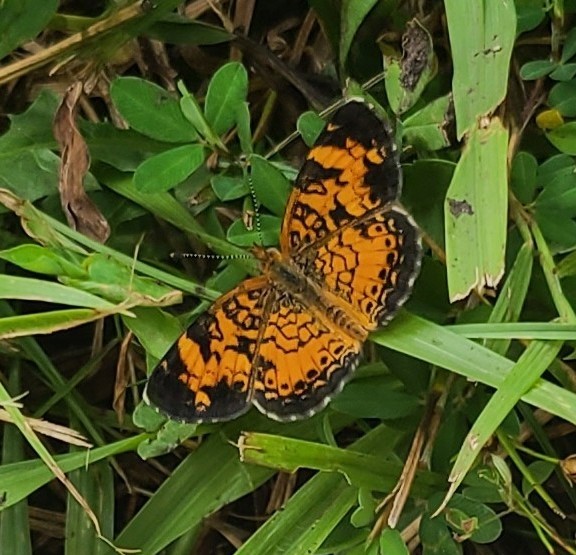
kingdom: Animalia
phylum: Arthropoda
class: Insecta
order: Lepidoptera
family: Nymphalidae
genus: Phyciodes
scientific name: Phyciodes tharos
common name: Pearl crescent
